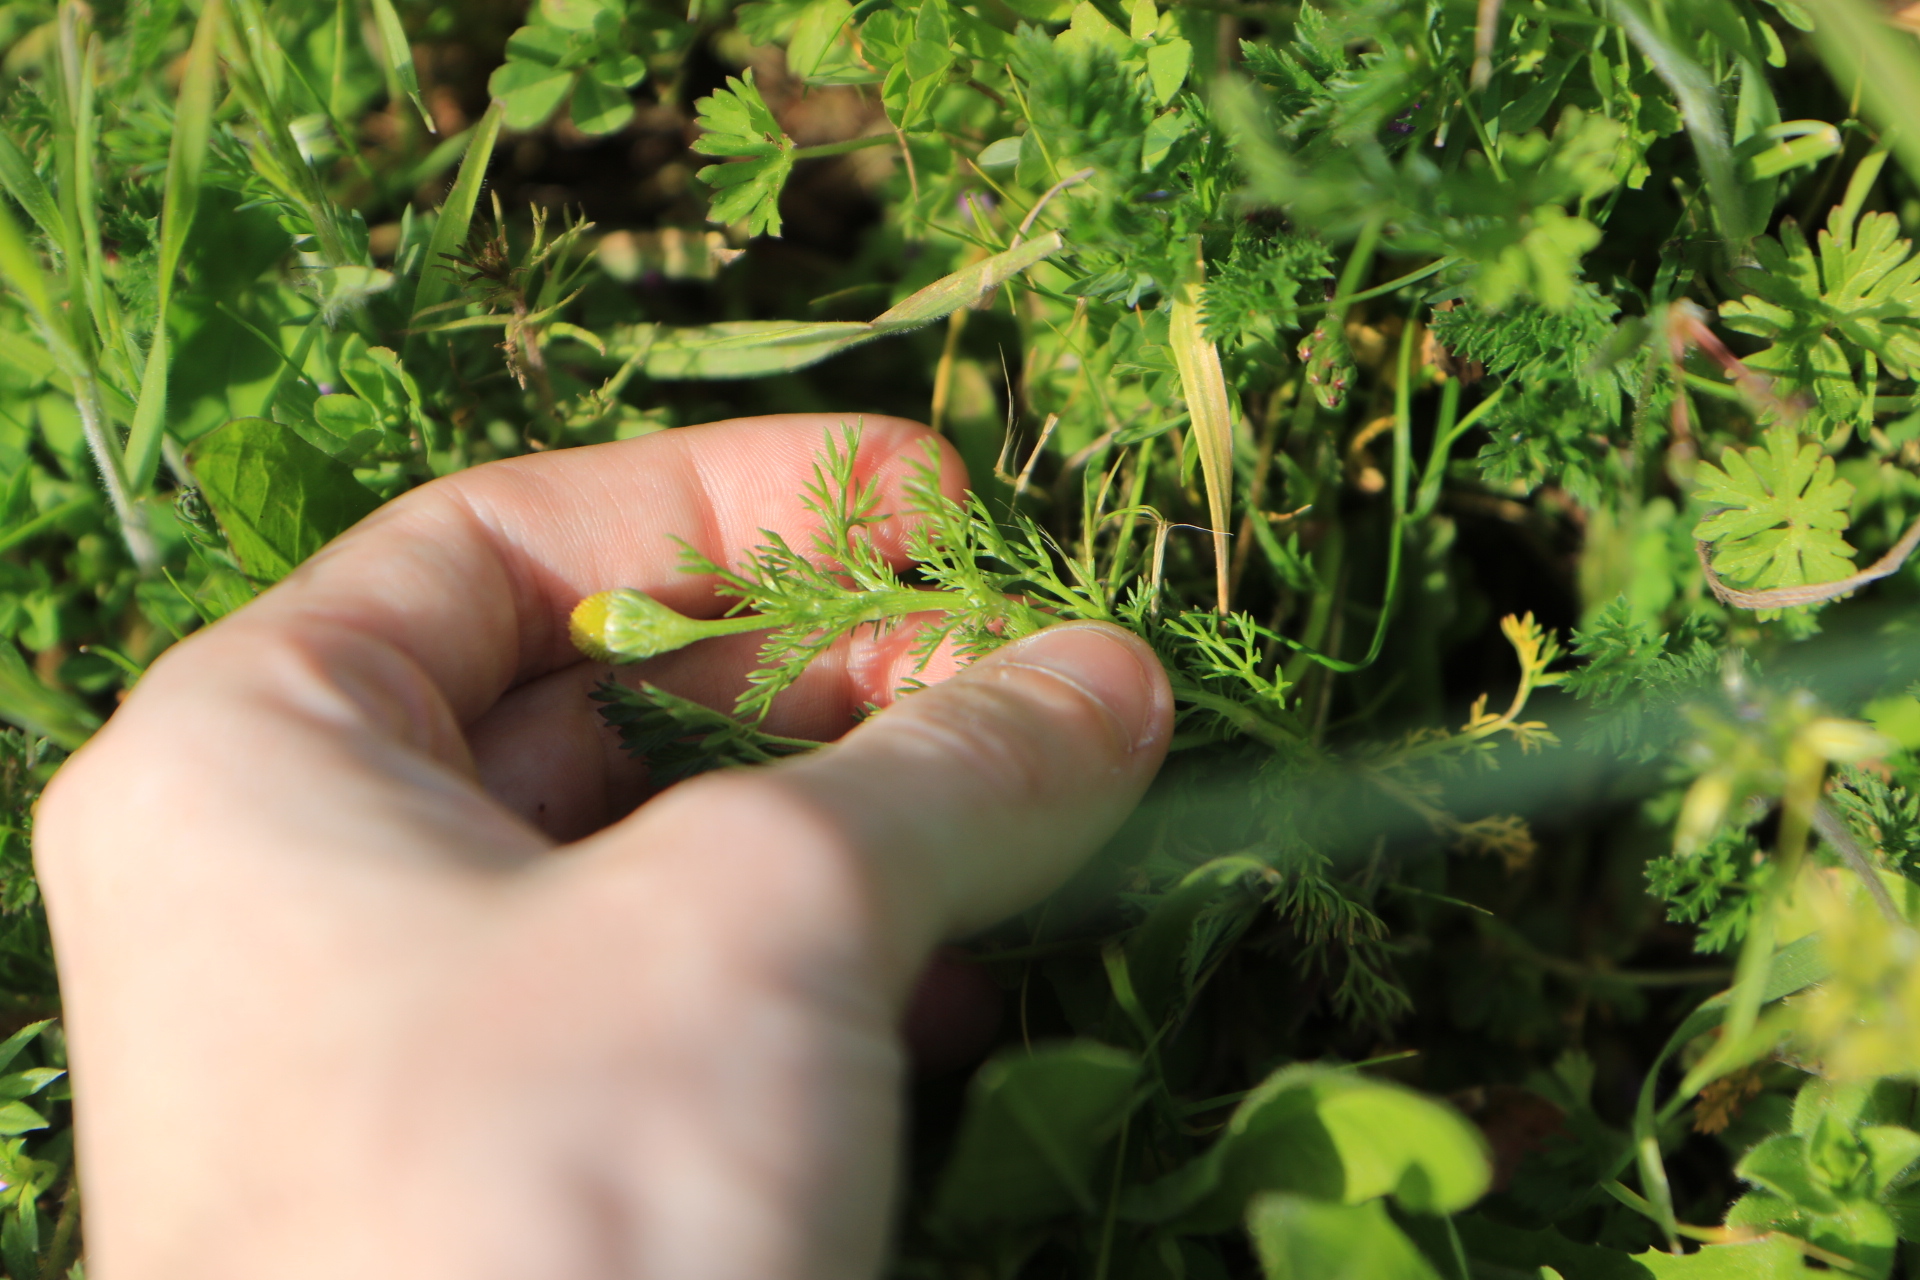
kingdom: Plantae
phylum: Tracheophyta
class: Magnoliopsida
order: Asterales
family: Asteraceae
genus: Matricaria
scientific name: Matricaria discoidea
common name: Disc mayweed
